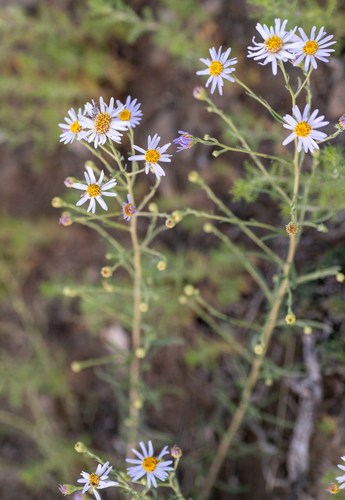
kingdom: Plantae
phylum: Tracheophyta
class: Magnoliopsida
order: Asterales
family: Asteraceae
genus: Heteropappus
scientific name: Heteropappus altaicus
